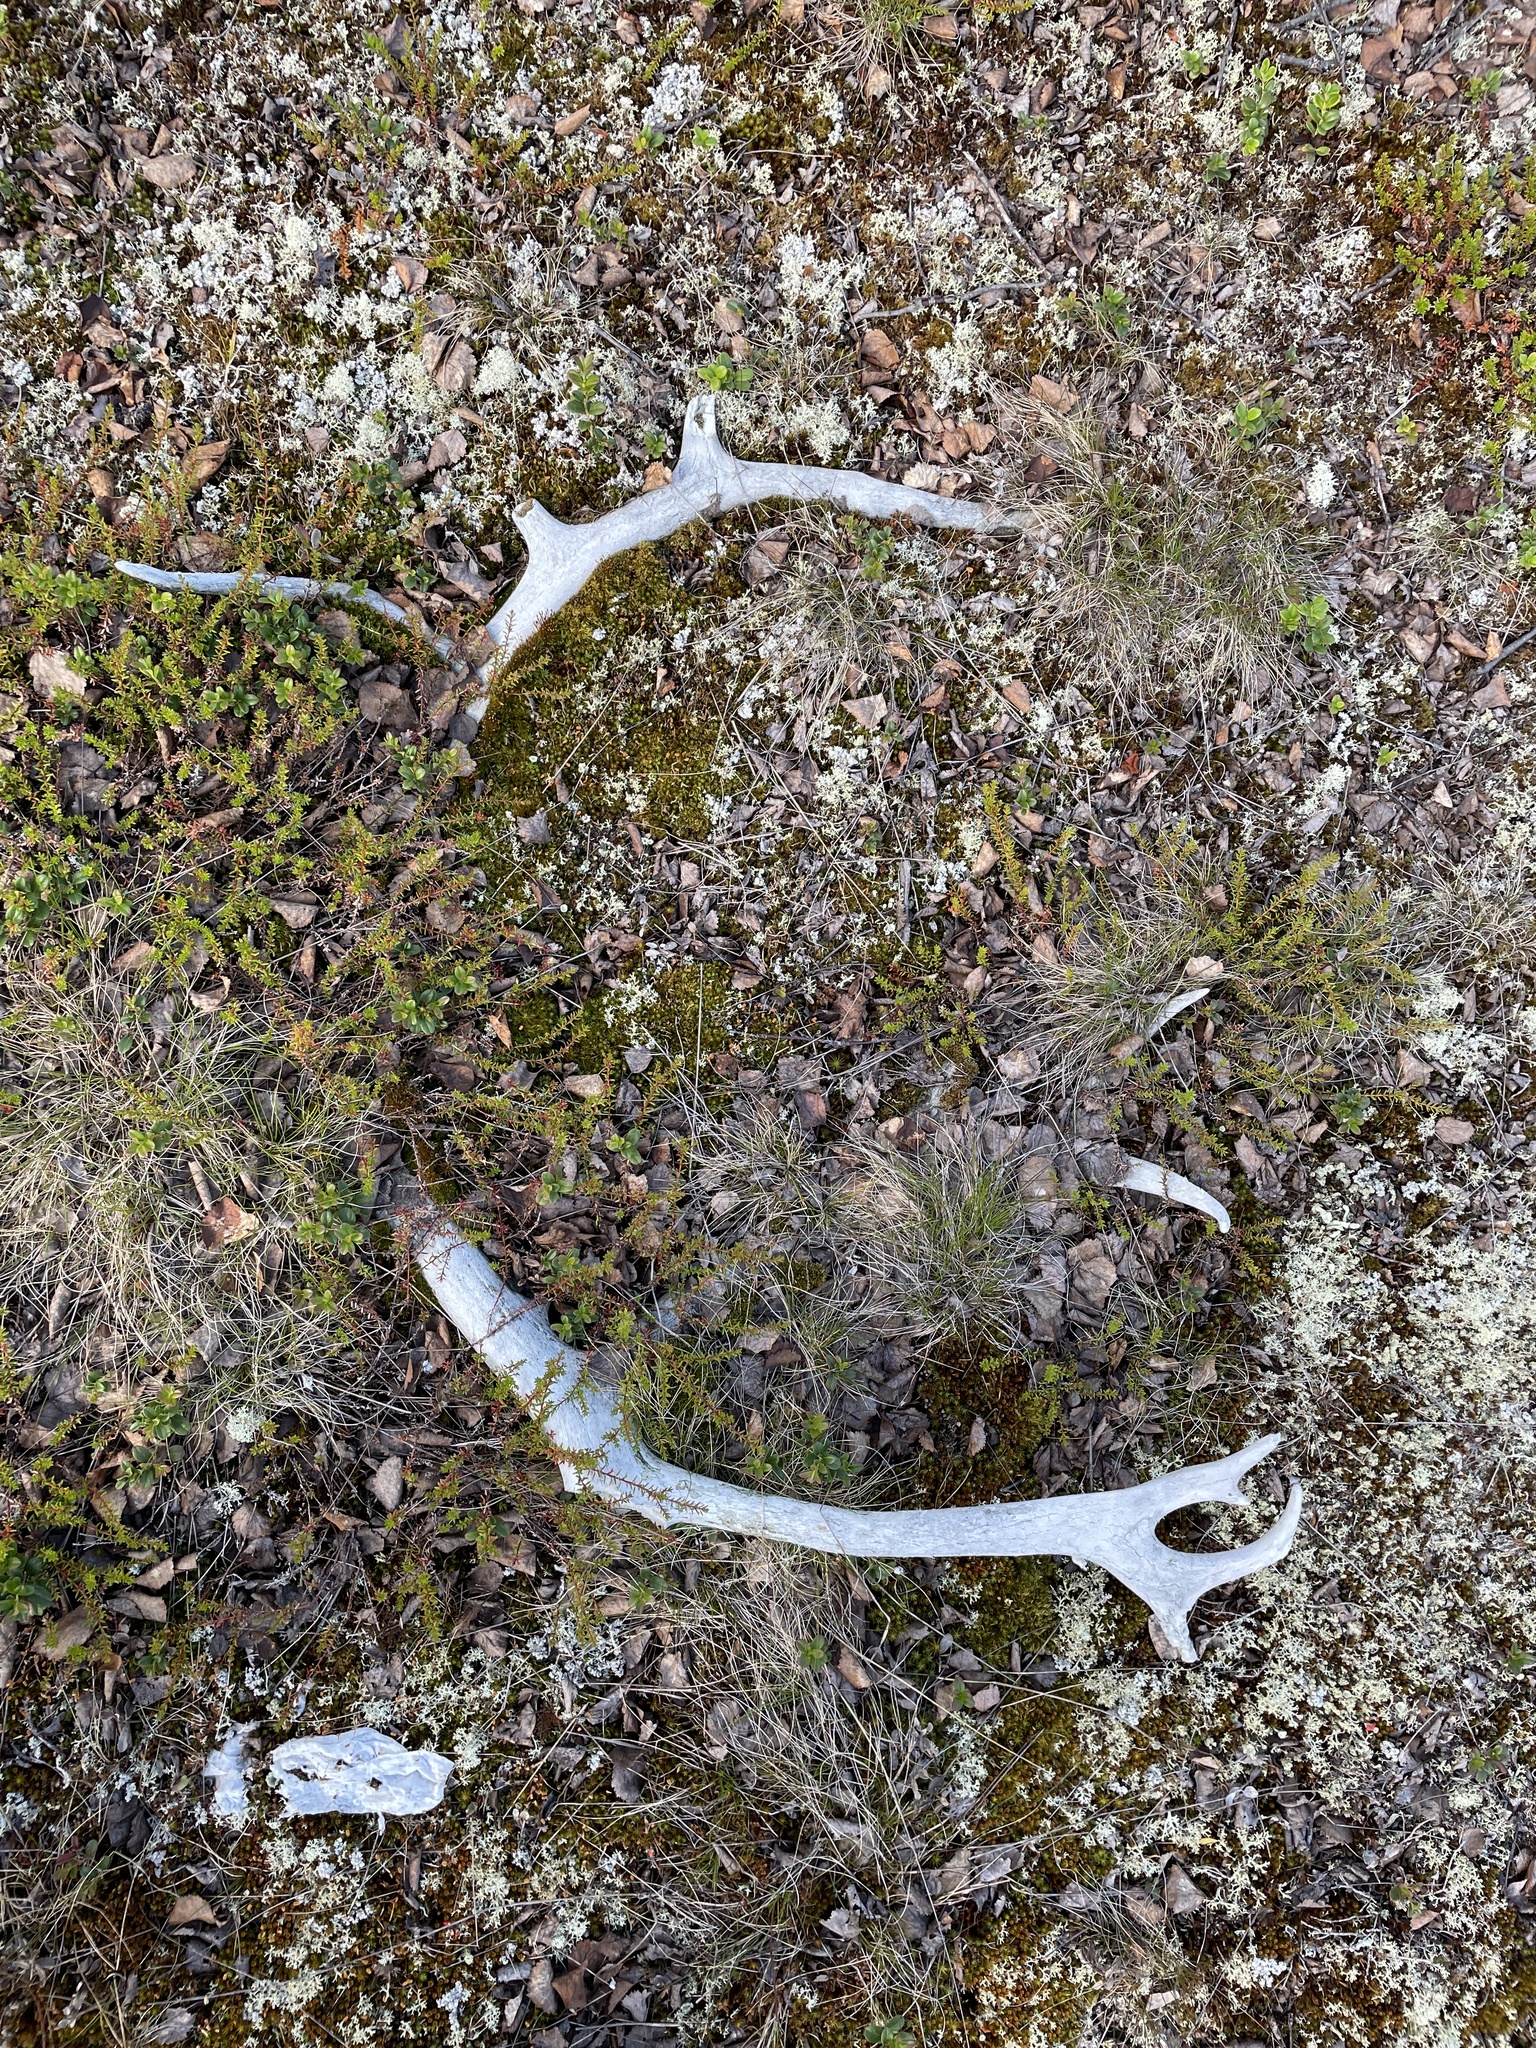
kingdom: Animalia
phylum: Chordata
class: Mammalia
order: Artiodactyla
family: Cervidae
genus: Rangifer
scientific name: Rangifer tarandus
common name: Reindeer
